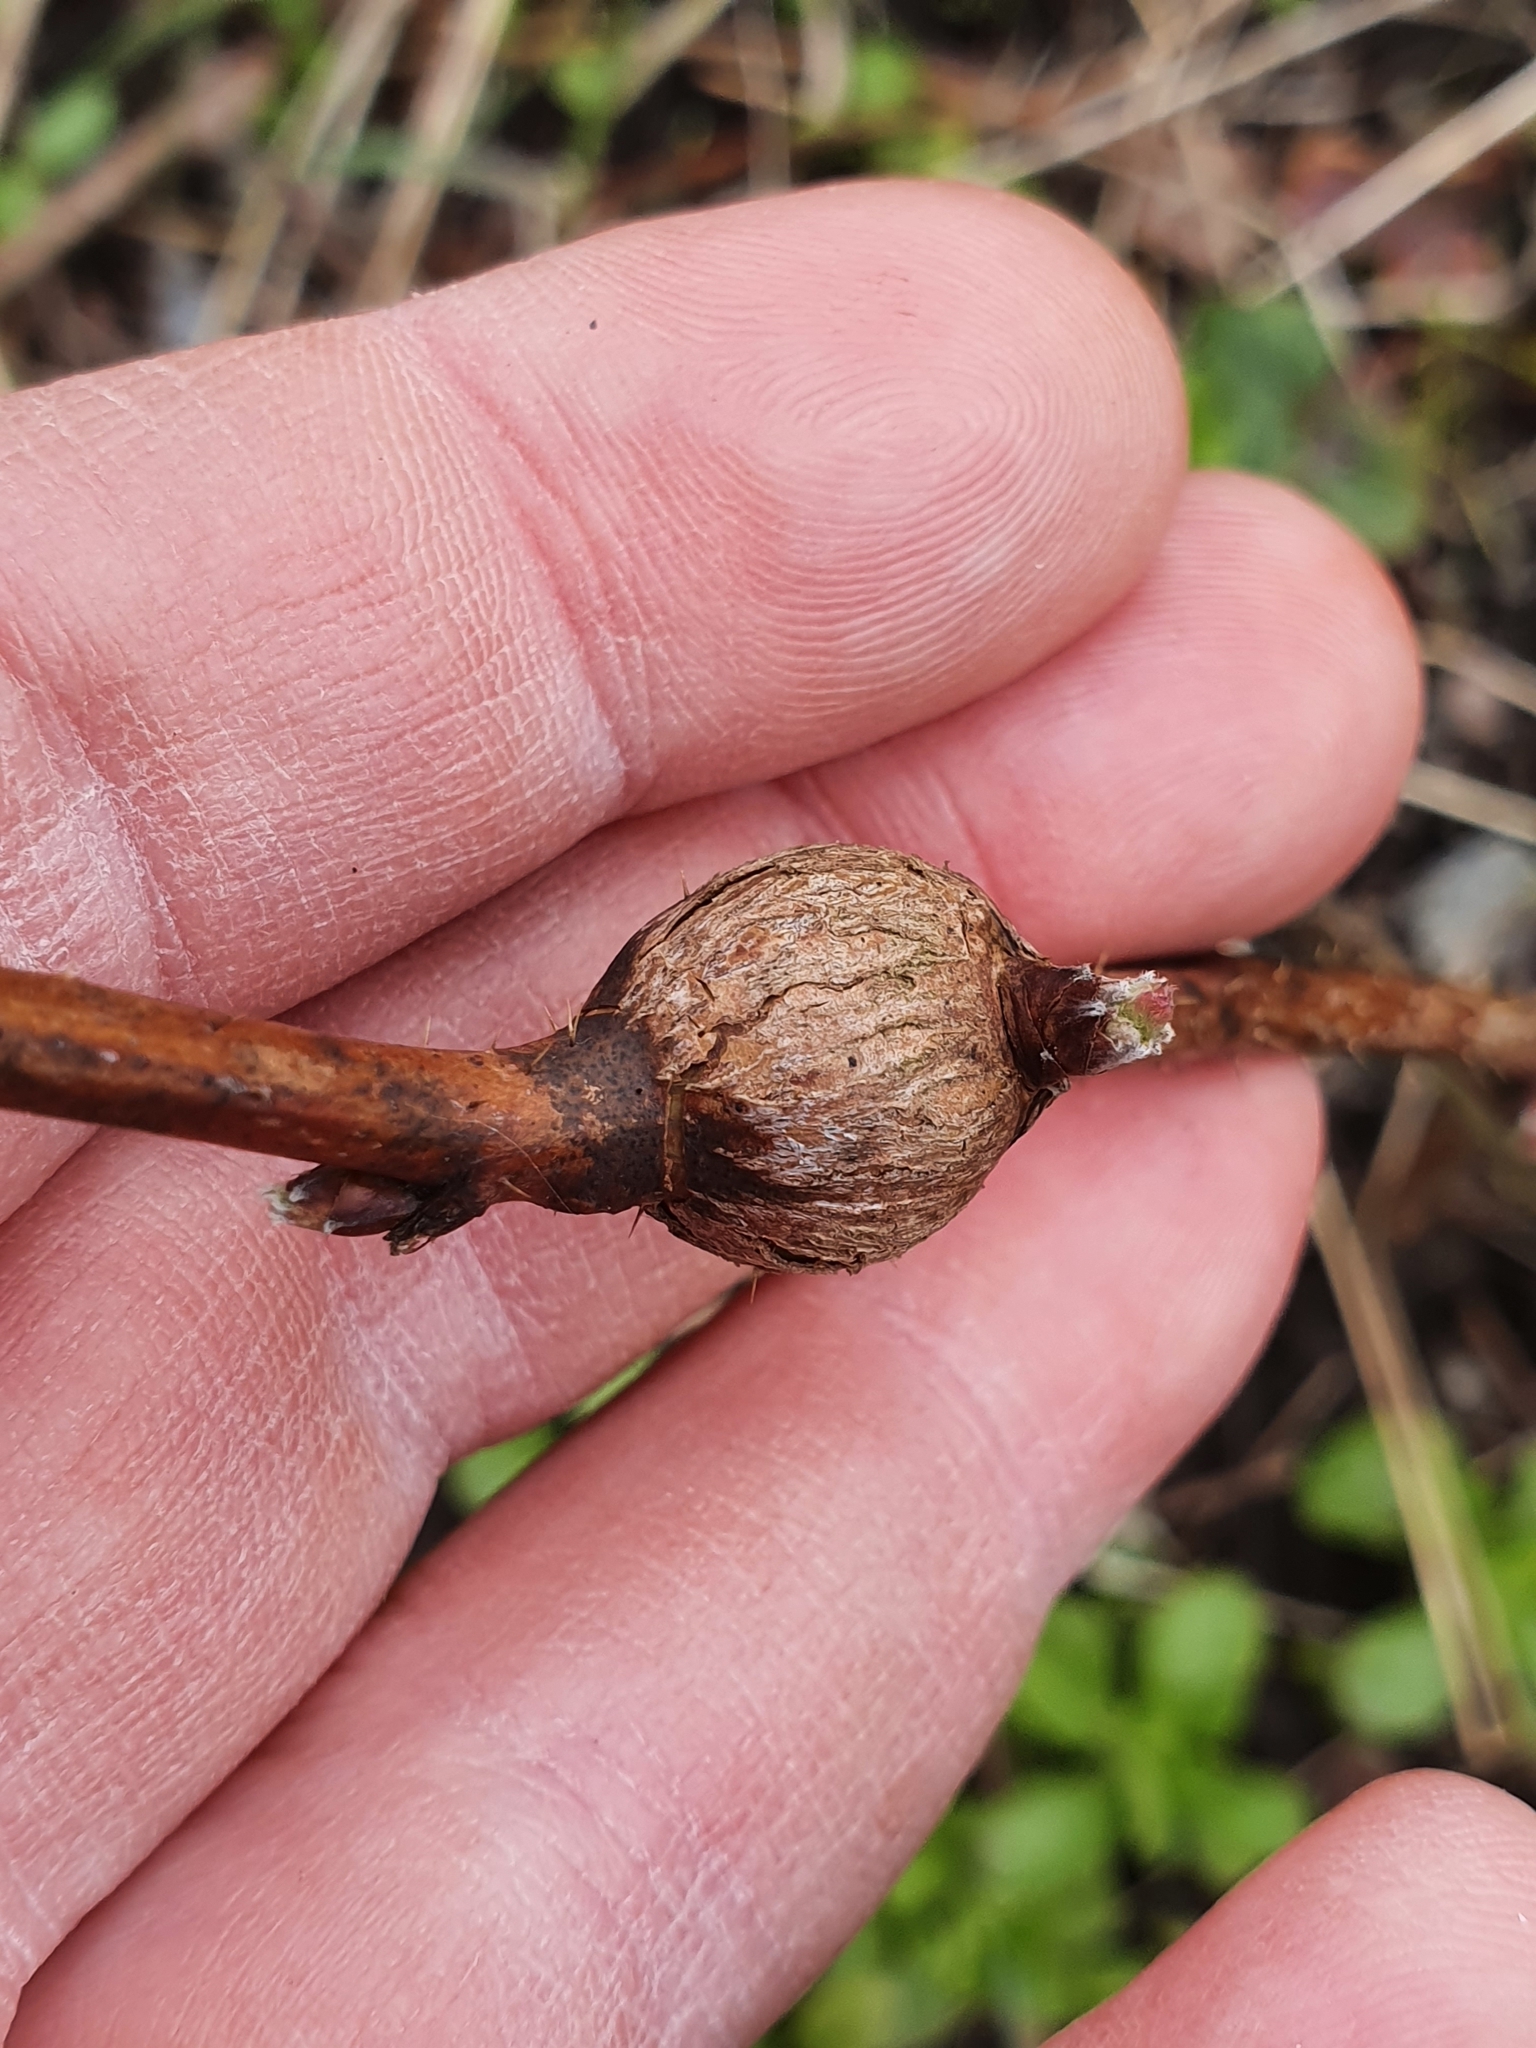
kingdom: Animalia
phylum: Arthropoda
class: Insecta
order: Diptera
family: Cecidomyiidae
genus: Lasioptera
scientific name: Lasioptera rubi
